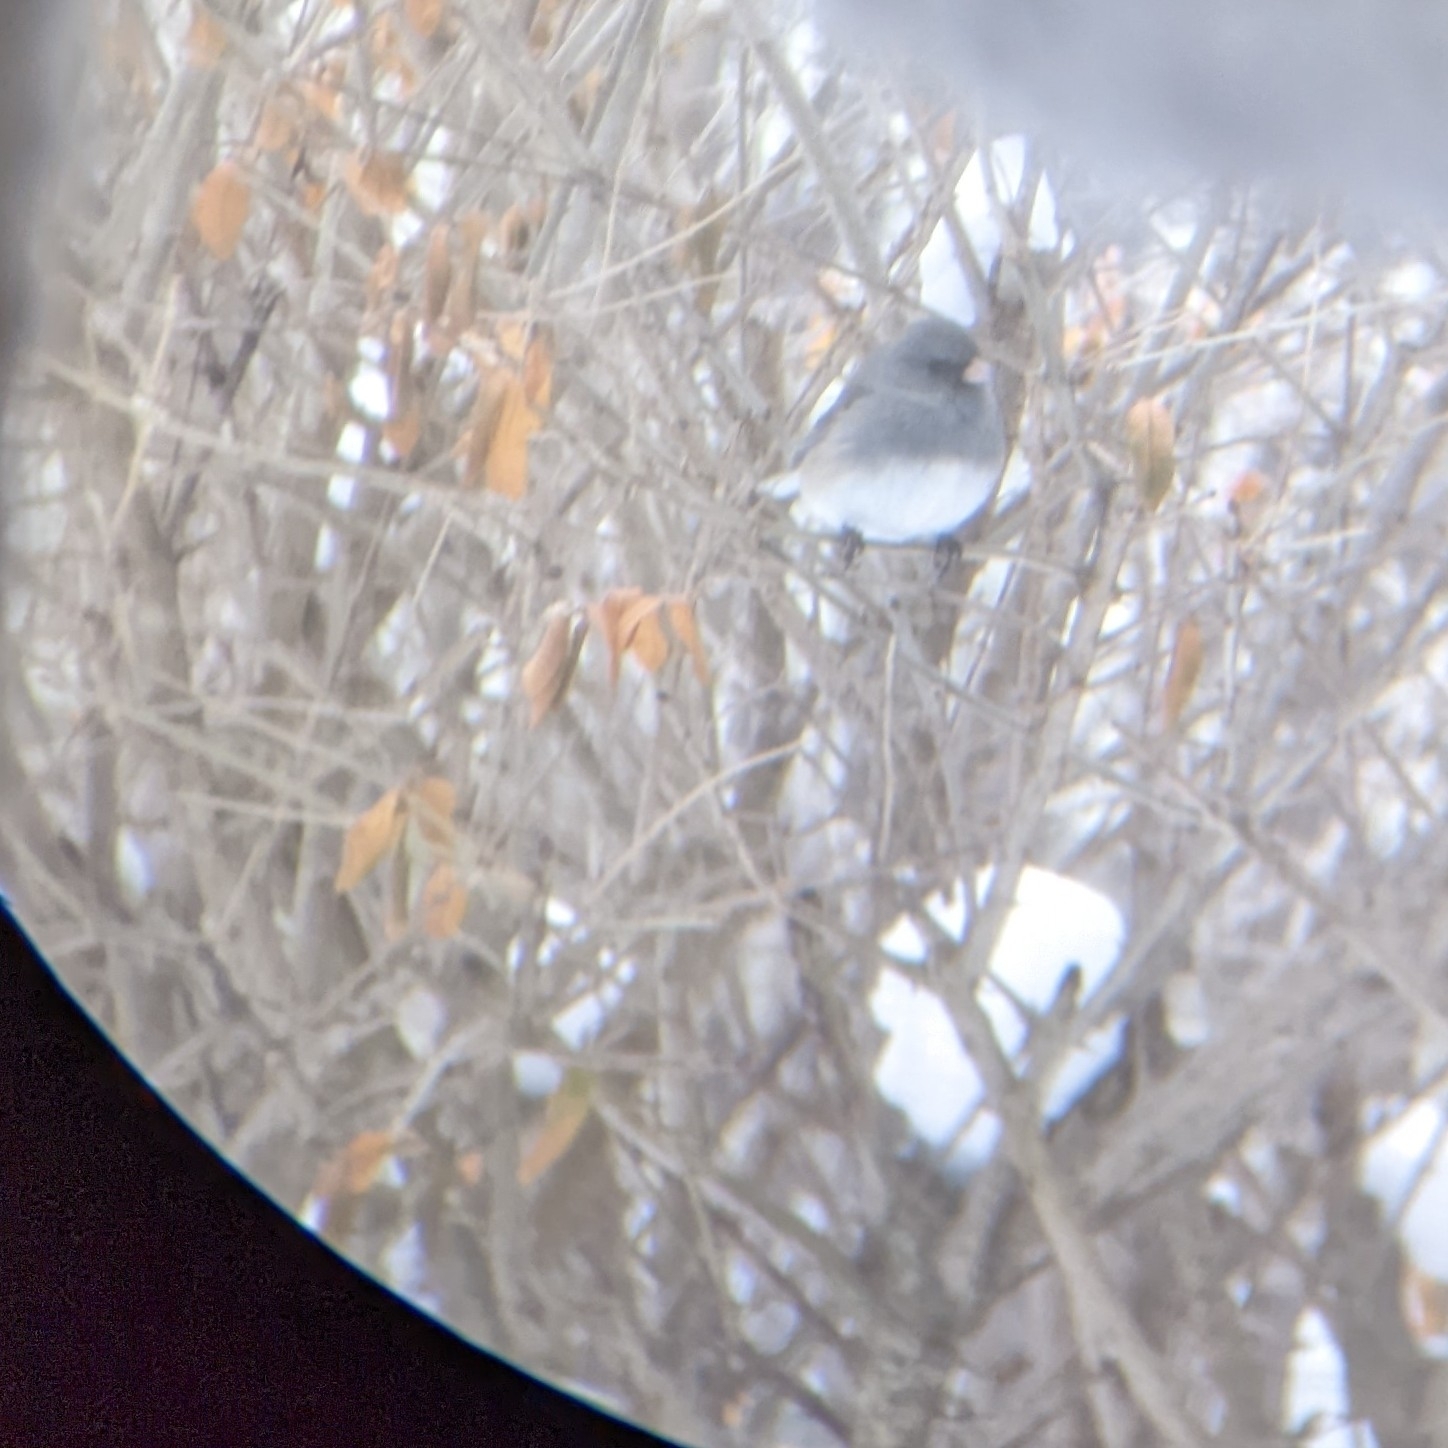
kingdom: Animalia
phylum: Chordata
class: Aves
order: Passeriformes
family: Passerellidae
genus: Junco
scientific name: Junco hyemalis
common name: Dark-eyed junco
